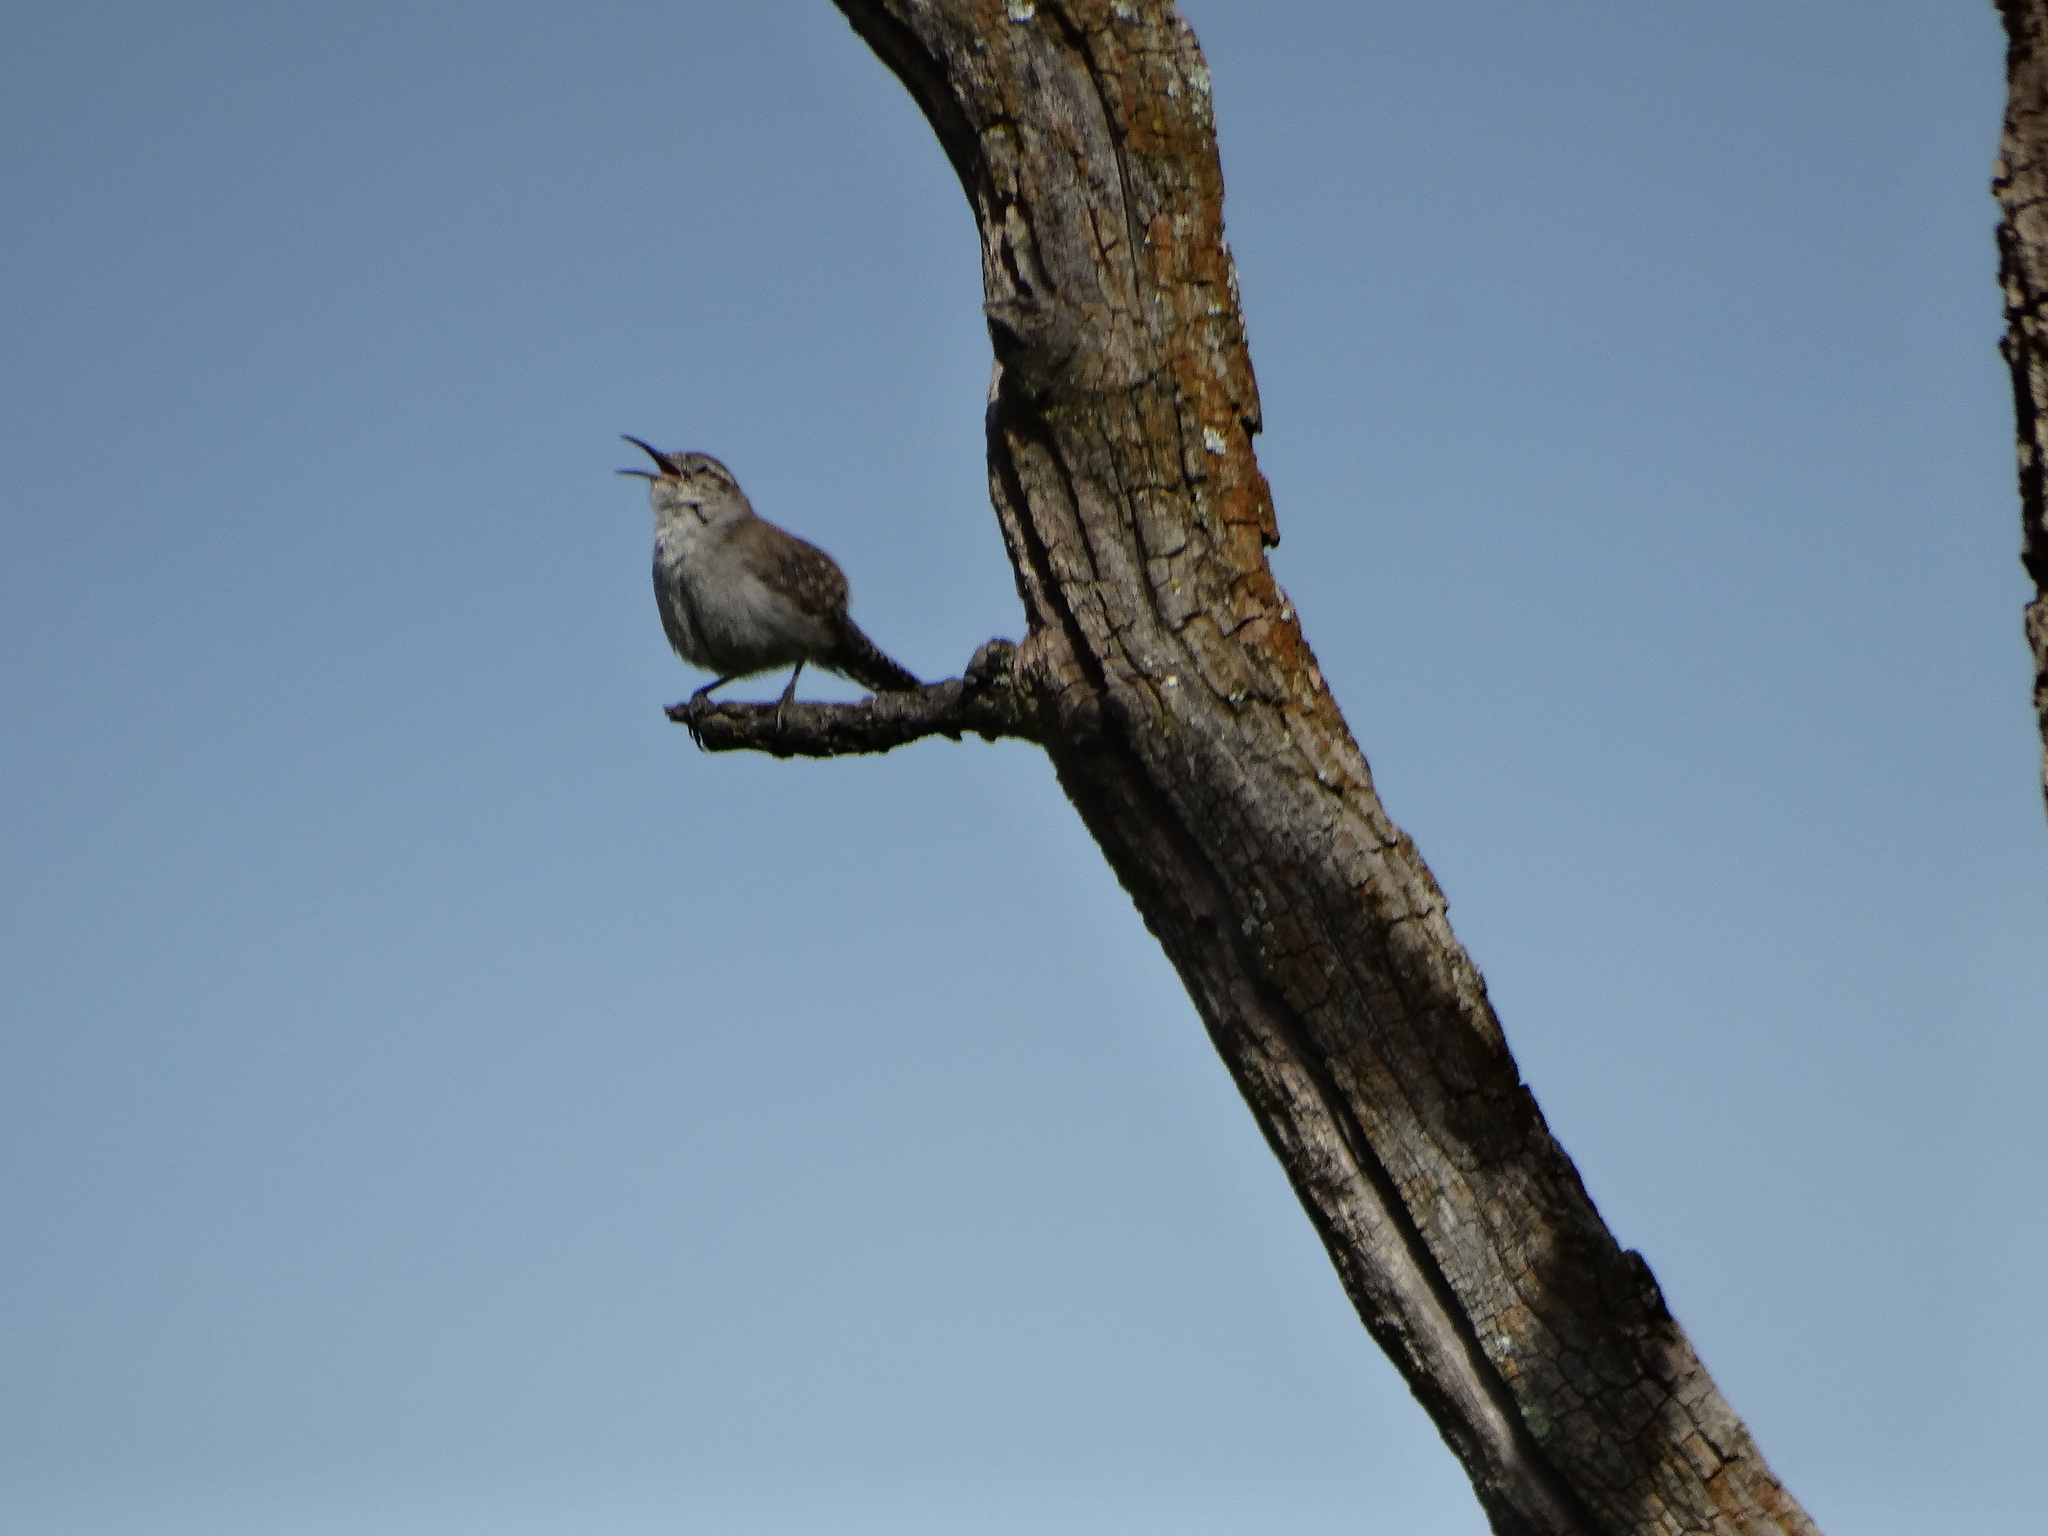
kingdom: Animalia
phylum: Chordata
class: Aves
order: Passeriformes
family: Troglodytidae
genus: Thryomanes
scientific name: Thryomanes bewickii
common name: Bewick's wren
